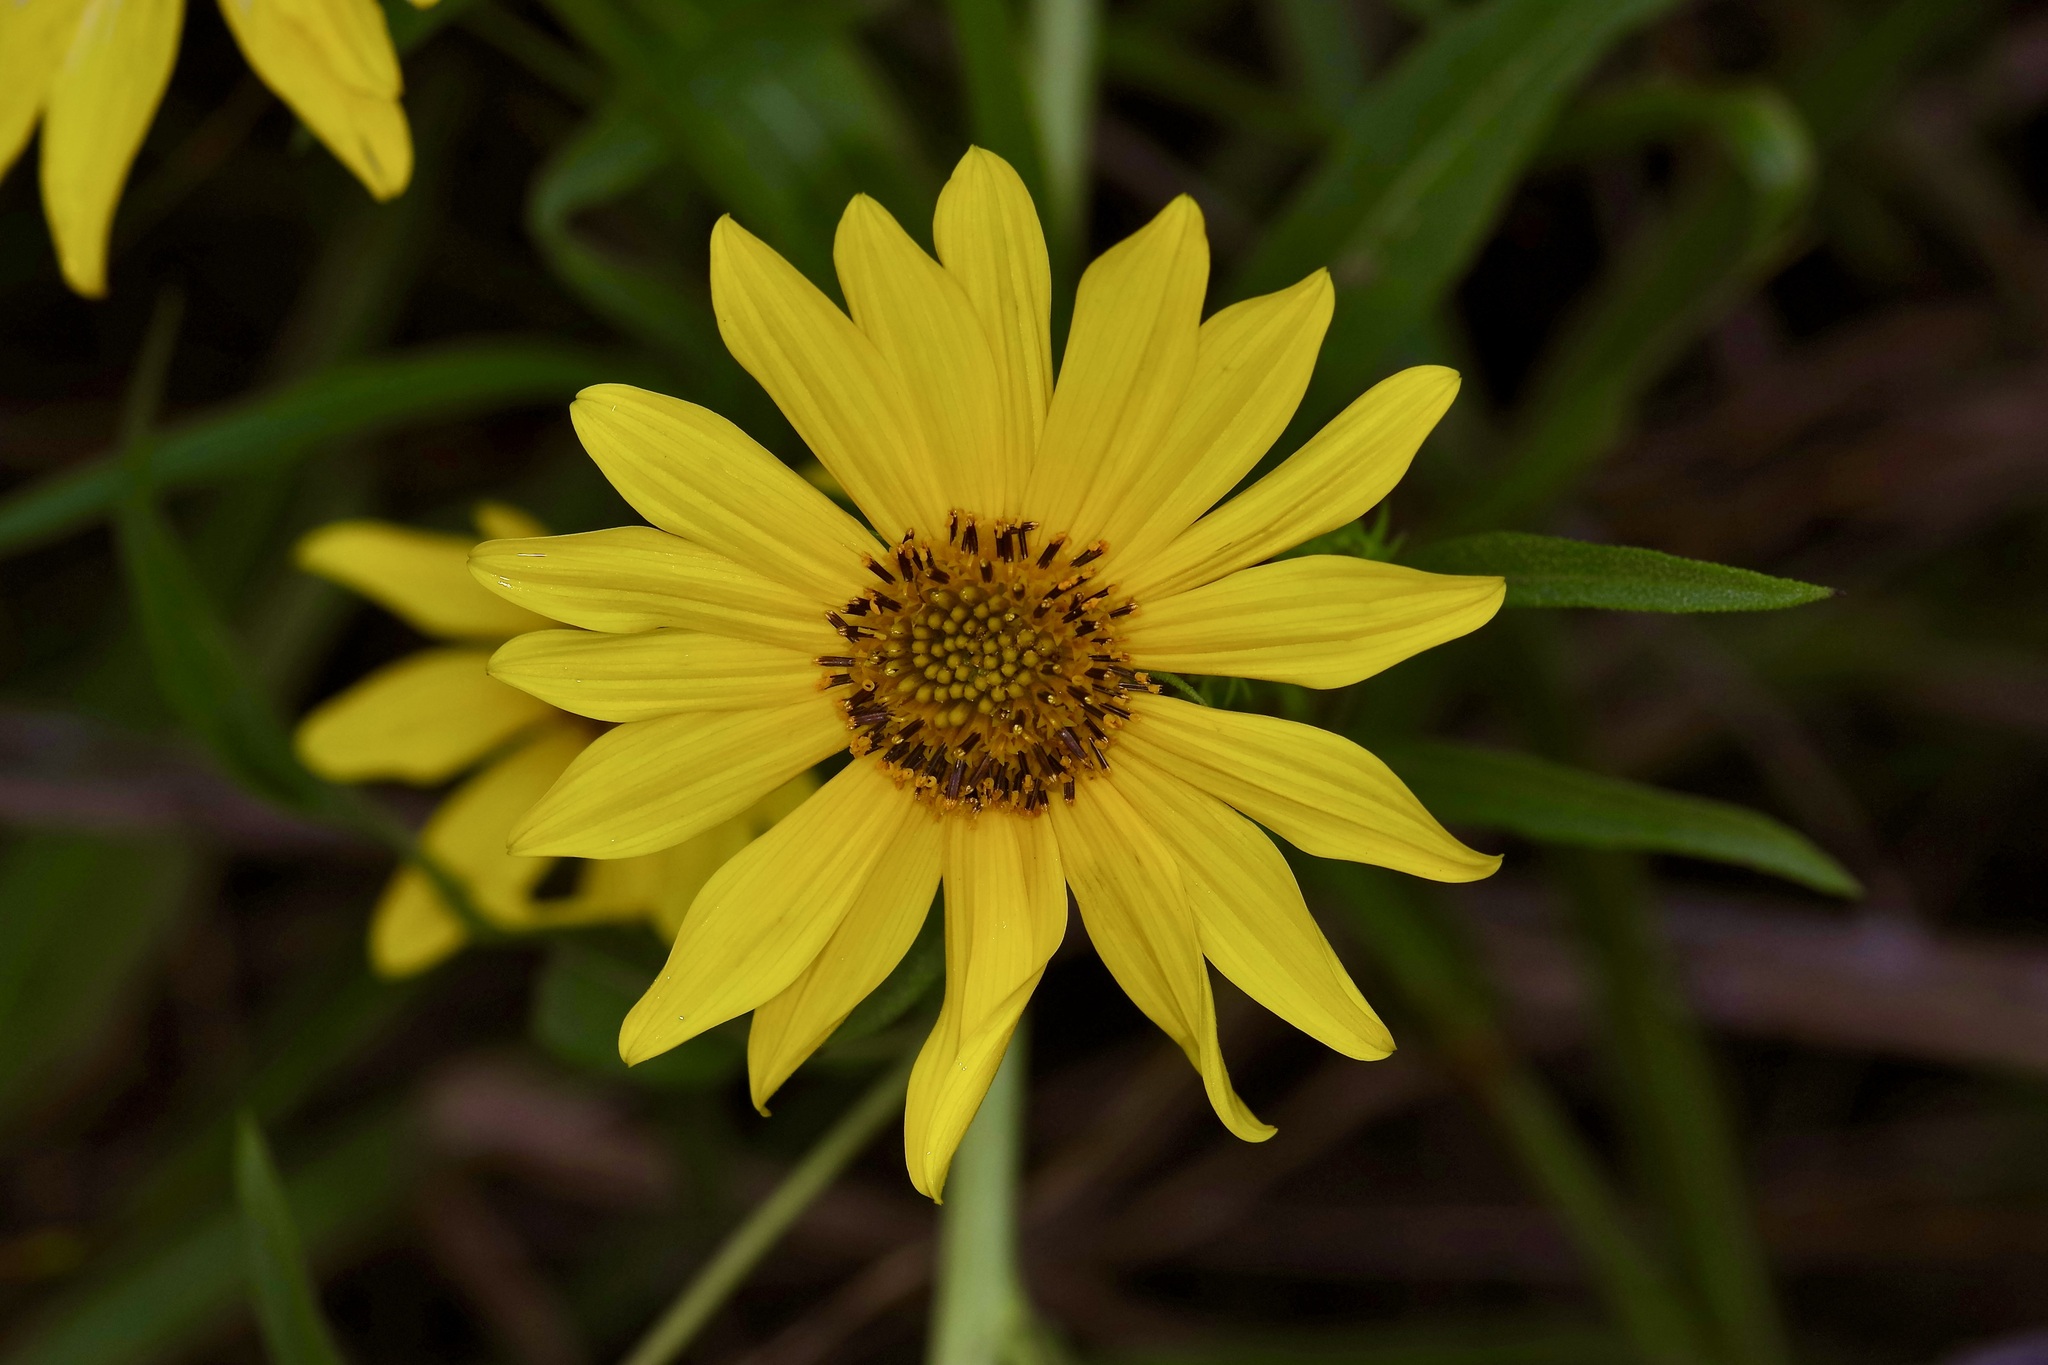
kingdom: Plantae
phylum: Tracheophyta
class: Magnoliopsida
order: Asterales
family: Asteraceae
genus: Helianthus
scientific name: Helianthus maximiliani
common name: Maximilian's sunflower
